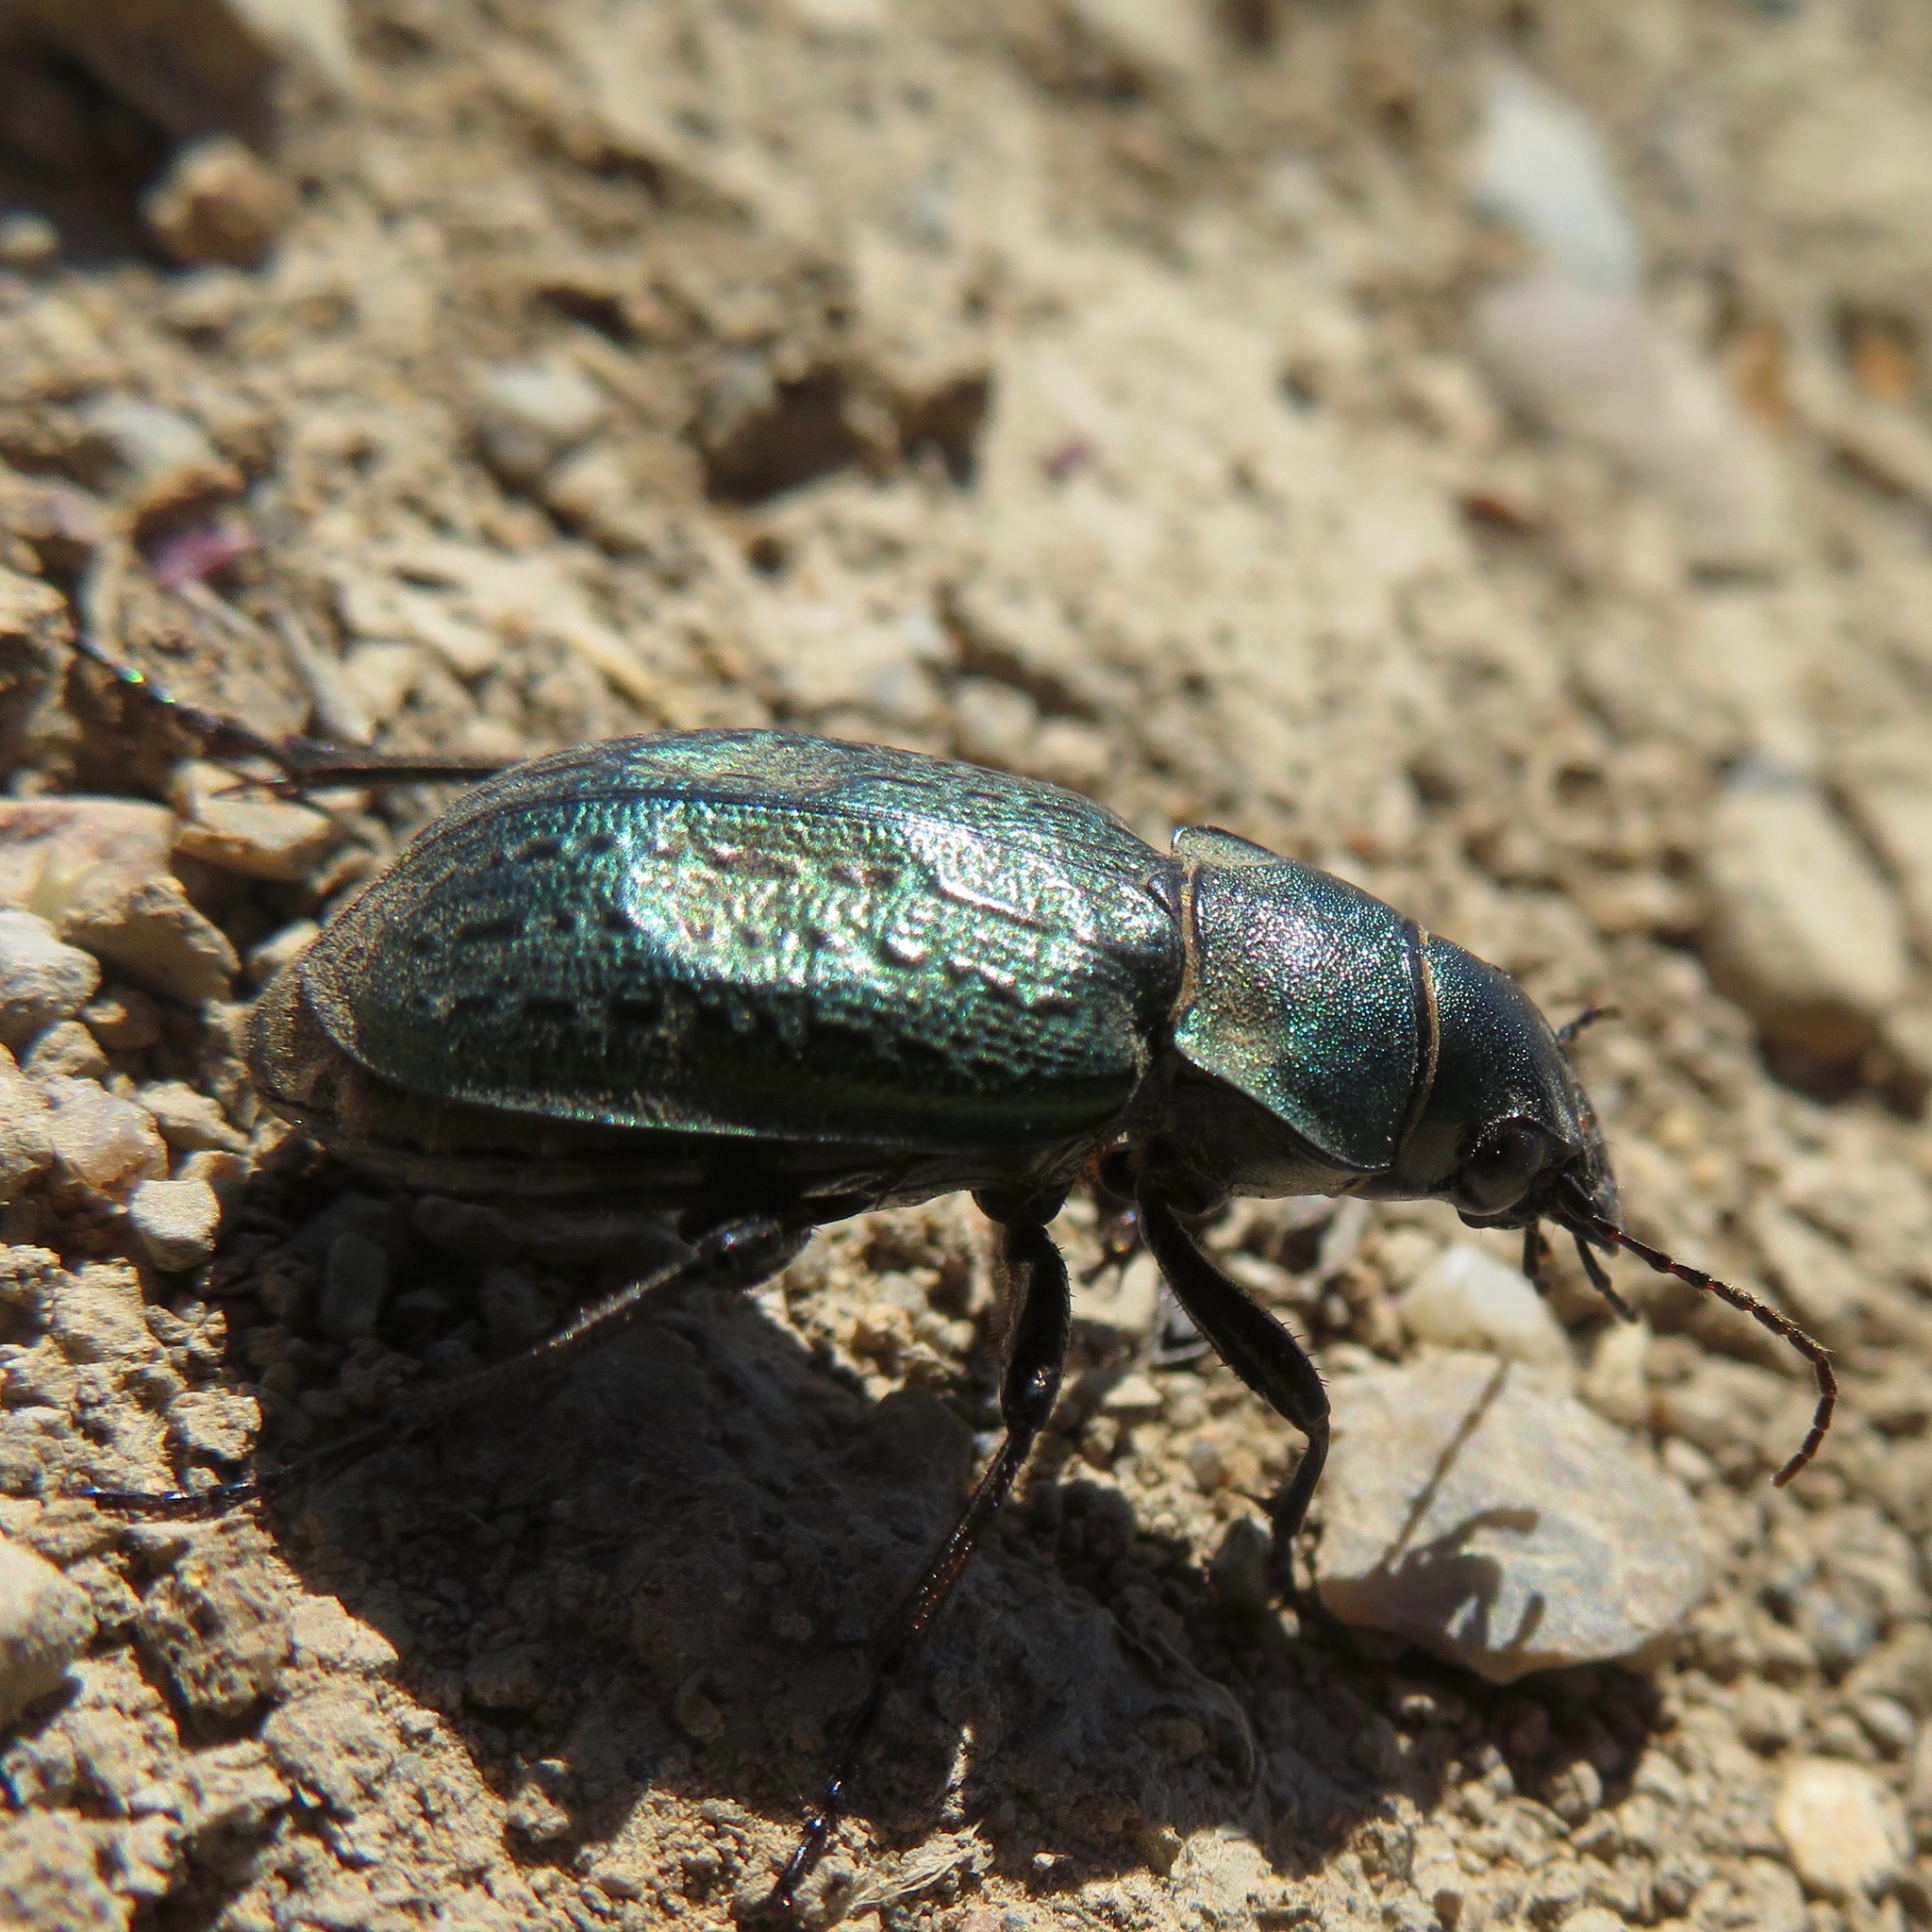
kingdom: Animalia
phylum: Arthropoda
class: Insecta
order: Coleoptera
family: Carabidae
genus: Calosoma
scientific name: Calosoma cancellatum
